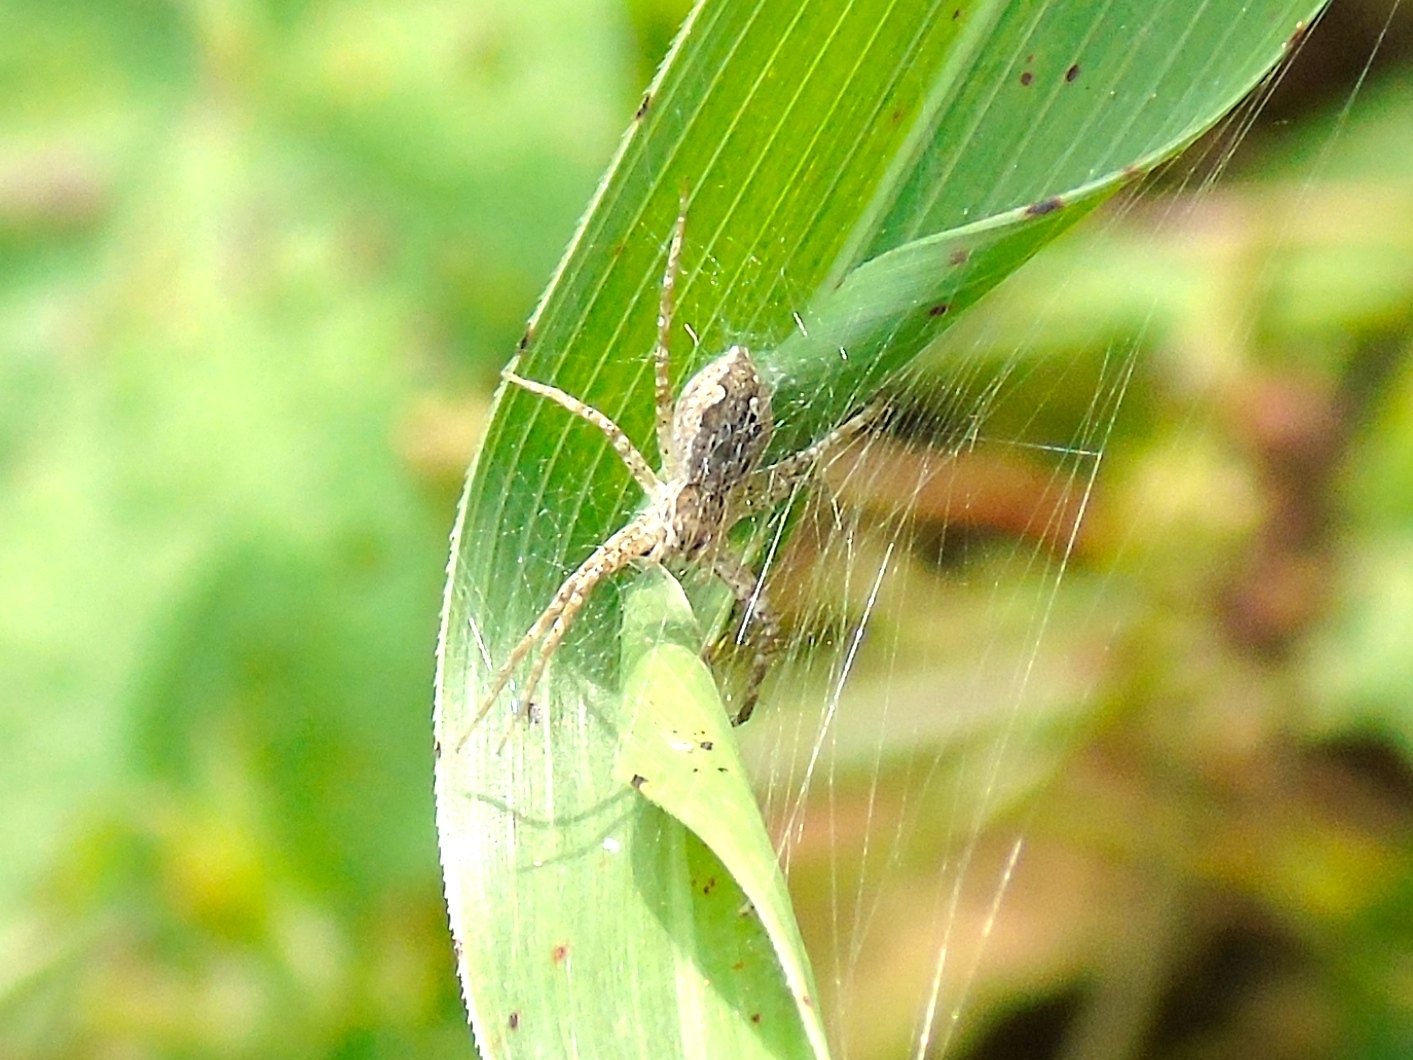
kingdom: Animalia
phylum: Arthropoda
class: Arachnida
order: Araneae
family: Pisauridae
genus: Tinus
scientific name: Tinus
